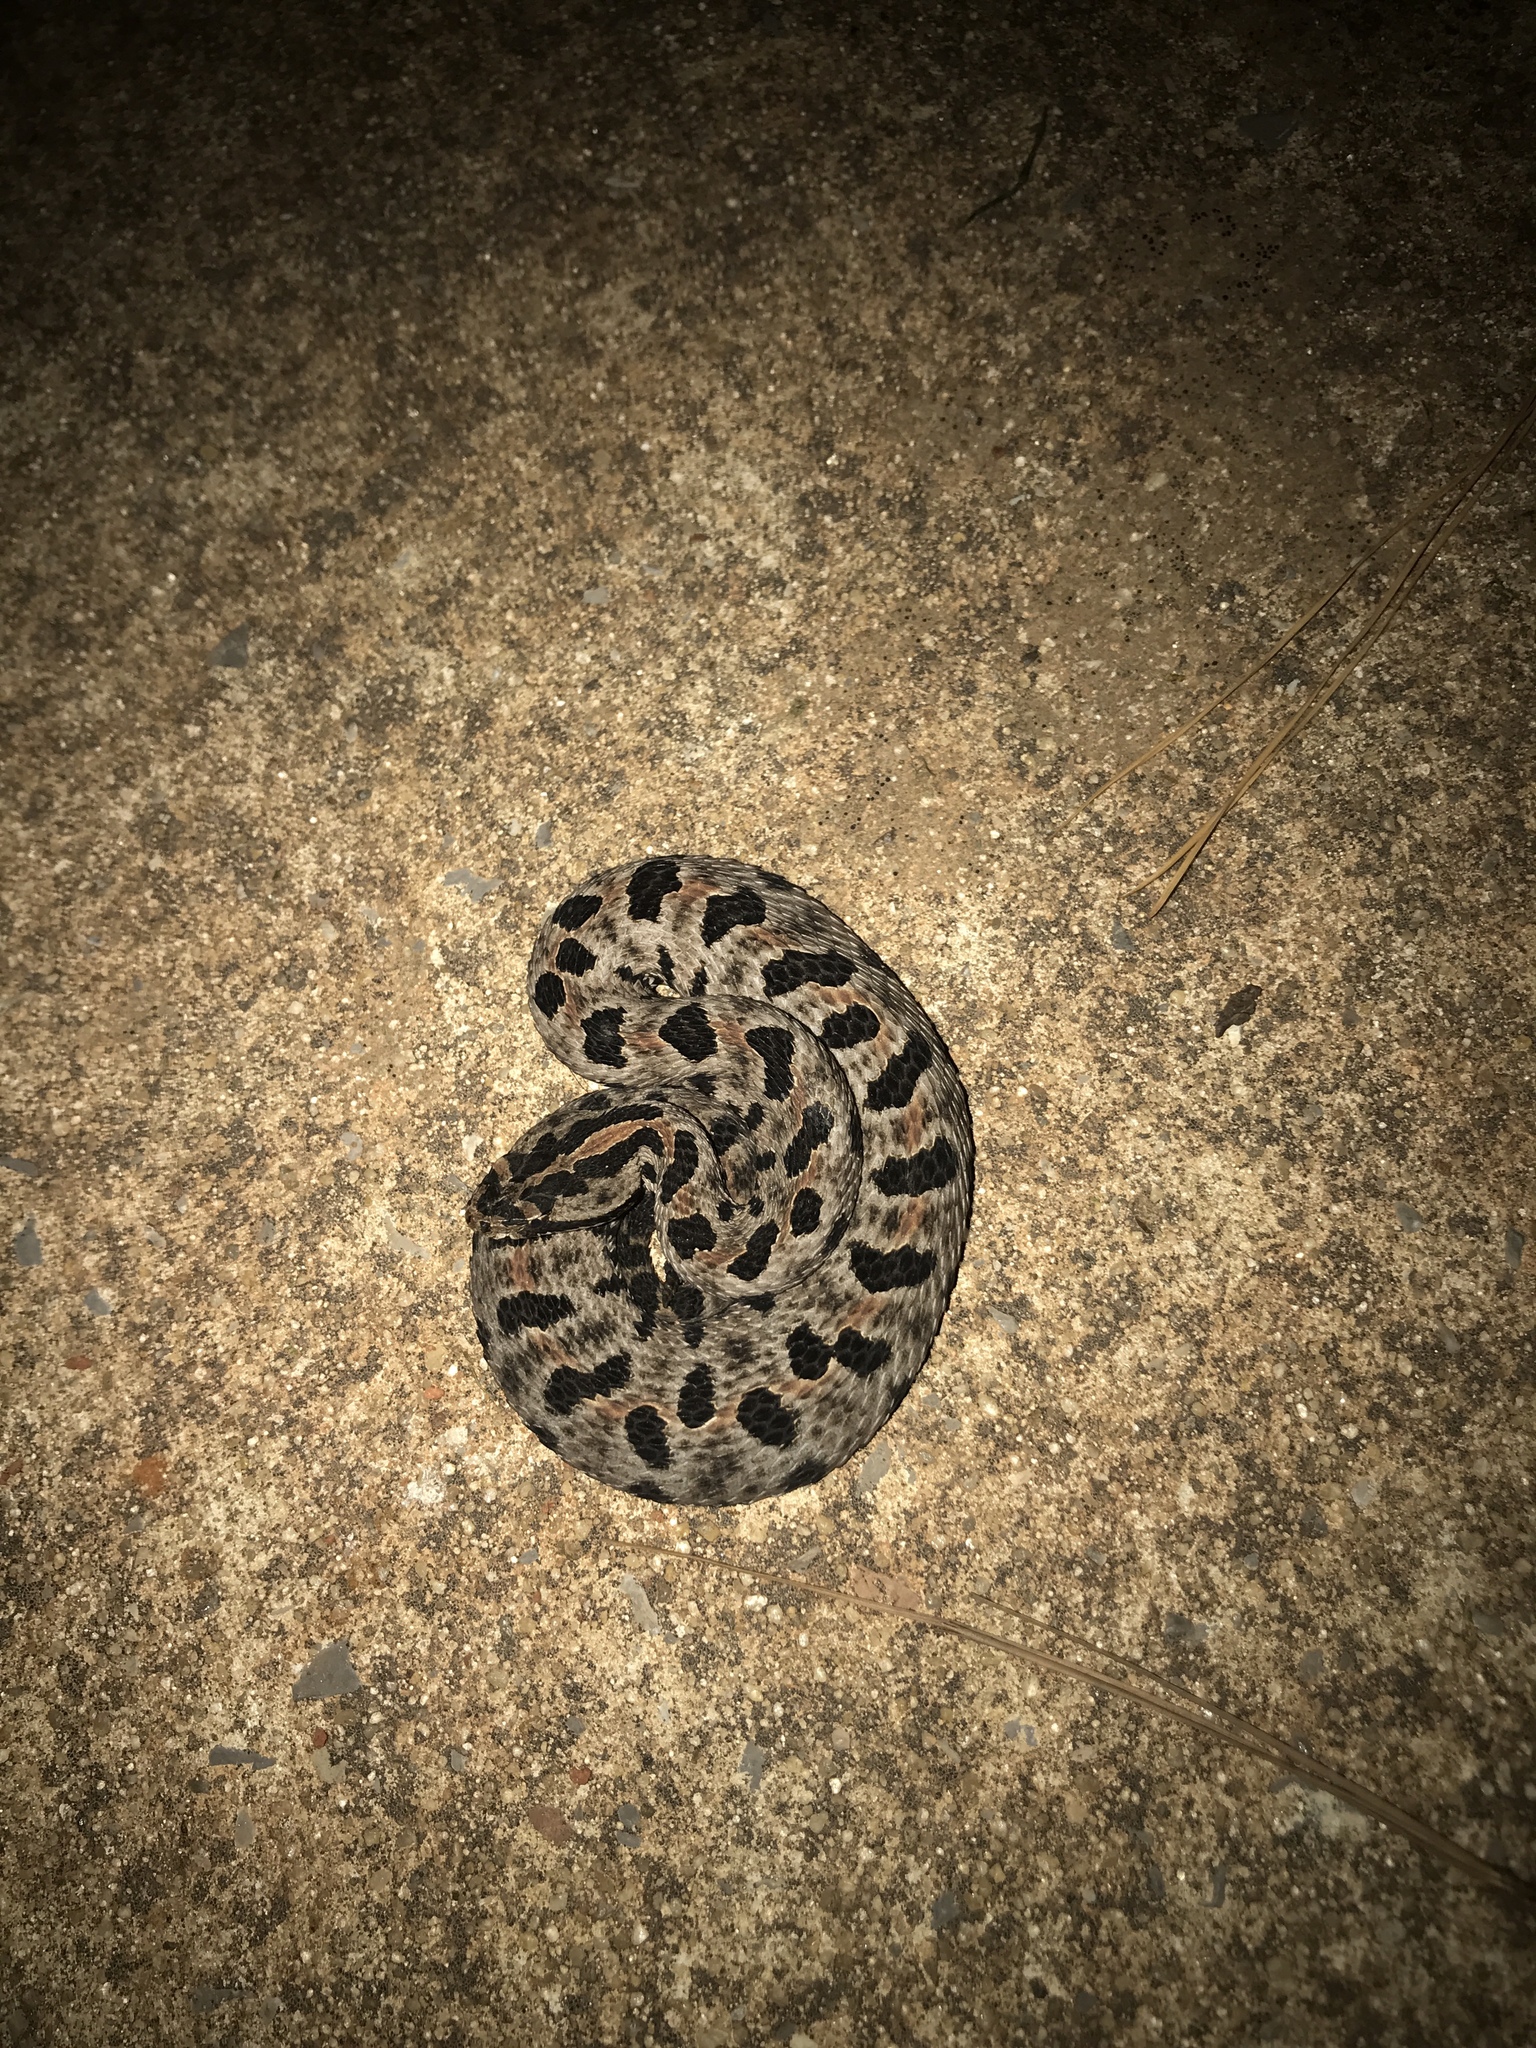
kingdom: Animalia
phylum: Chordata
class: Squamata
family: Viperidae
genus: Sistrurus
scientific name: Sistrurus miliarius
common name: Pygmy rattlesnake
